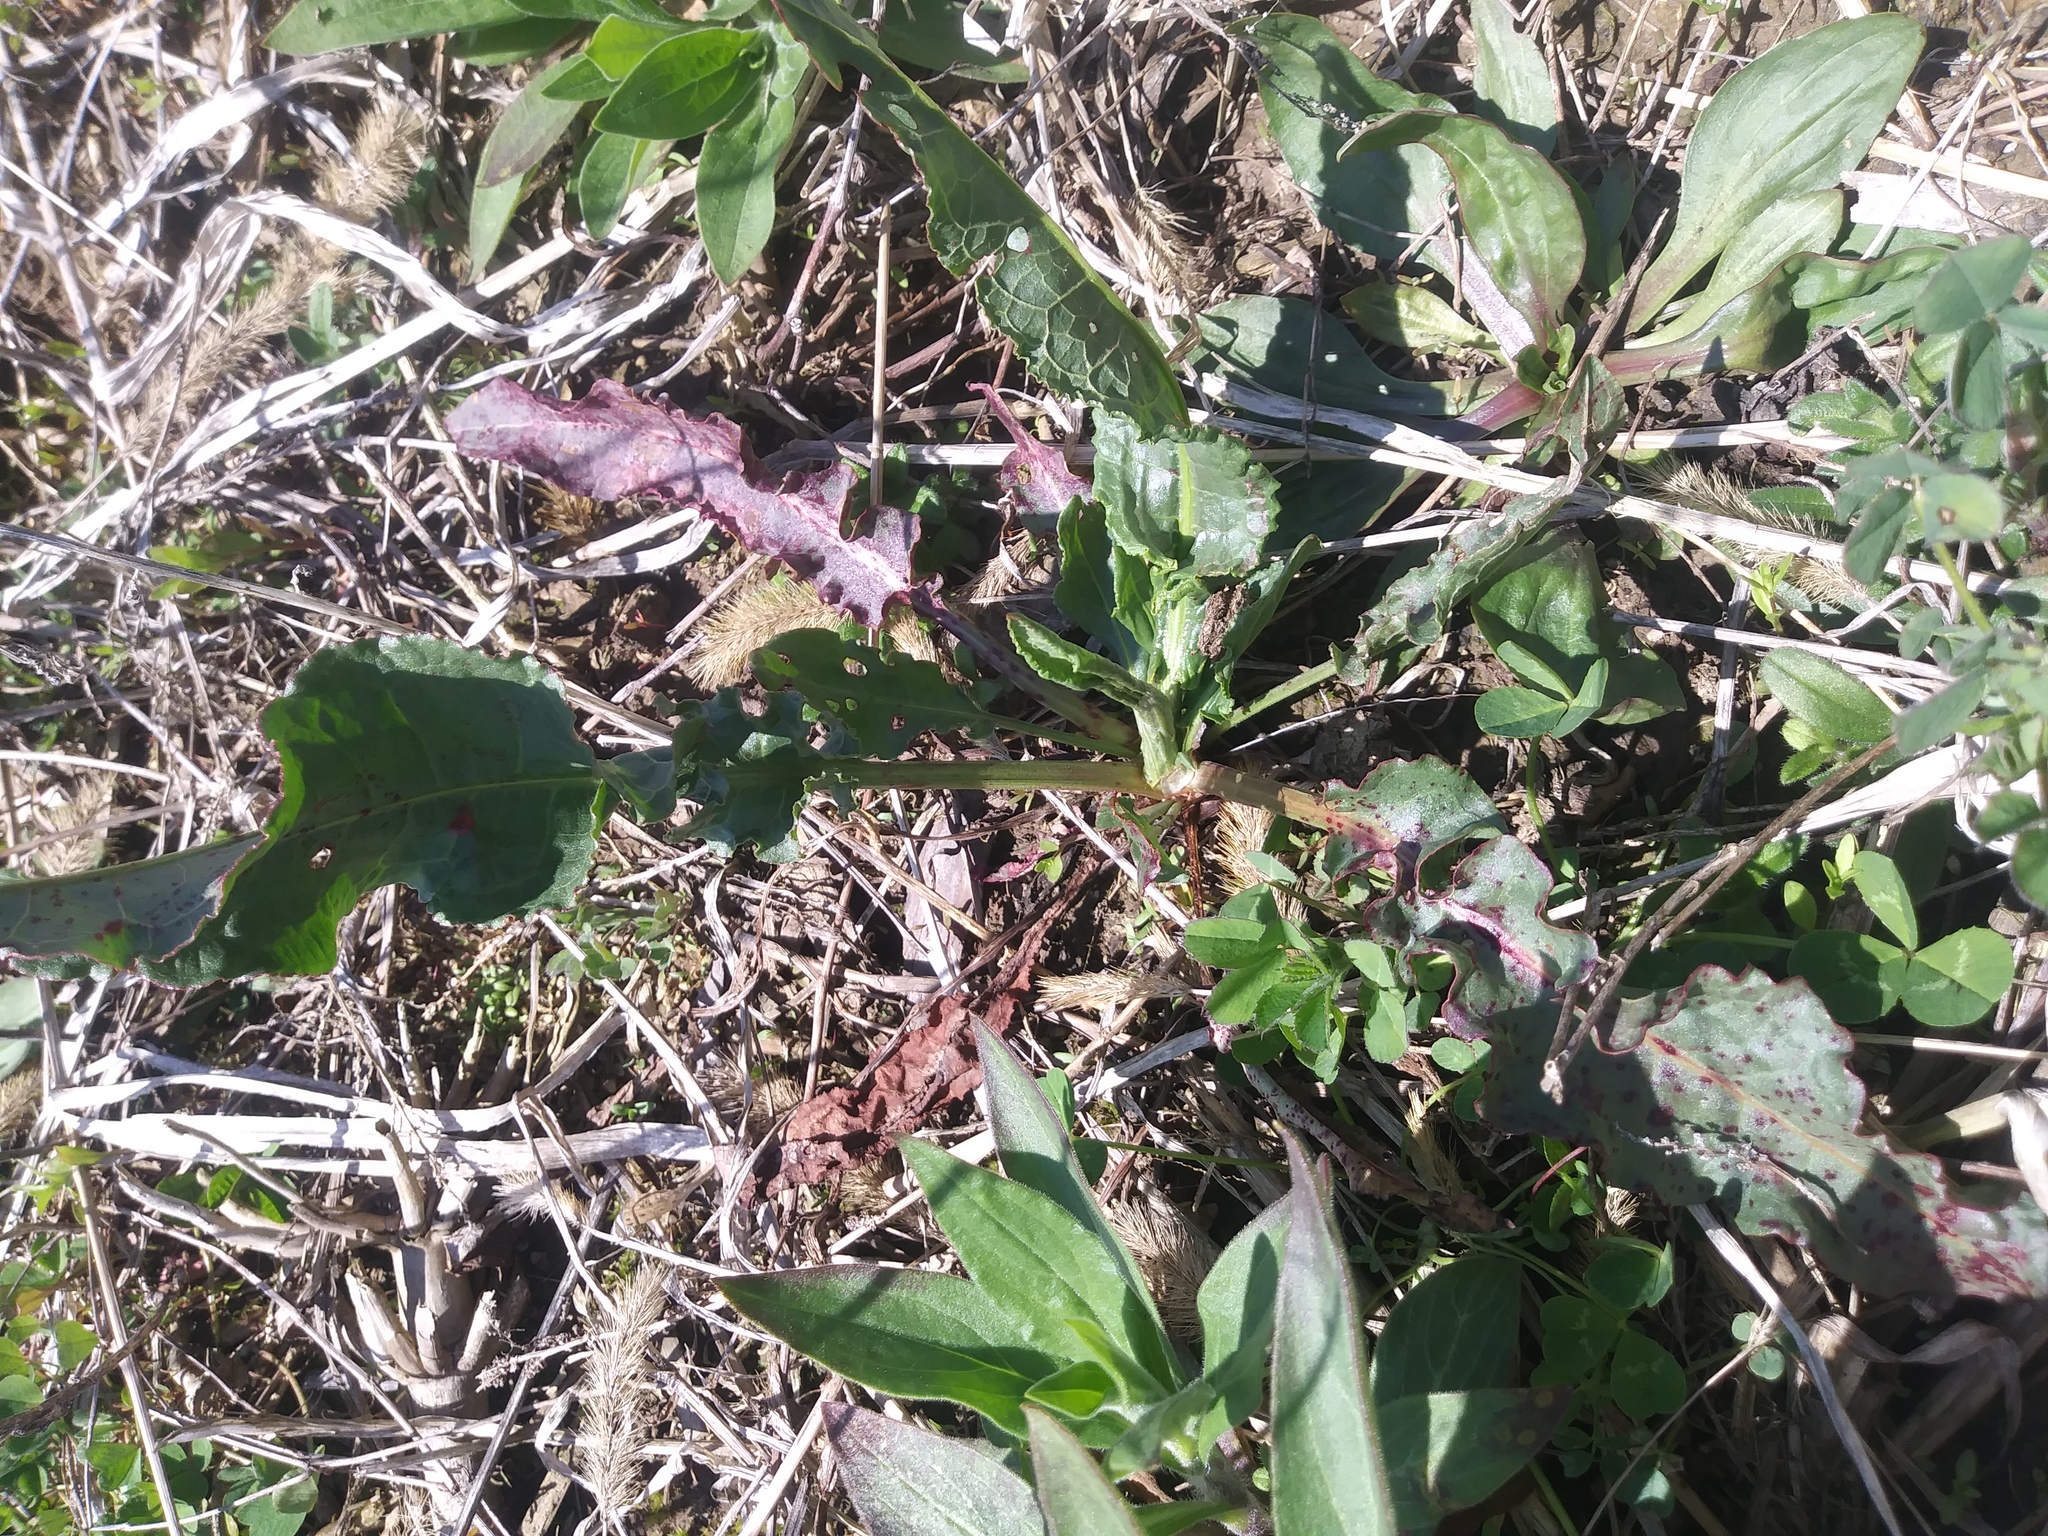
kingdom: Plantae
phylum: Tracheophyta
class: Magnoliopsida
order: Caryophyllales
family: Polygonaceae
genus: Rumex
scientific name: Rumex crispus
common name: Curled dock
